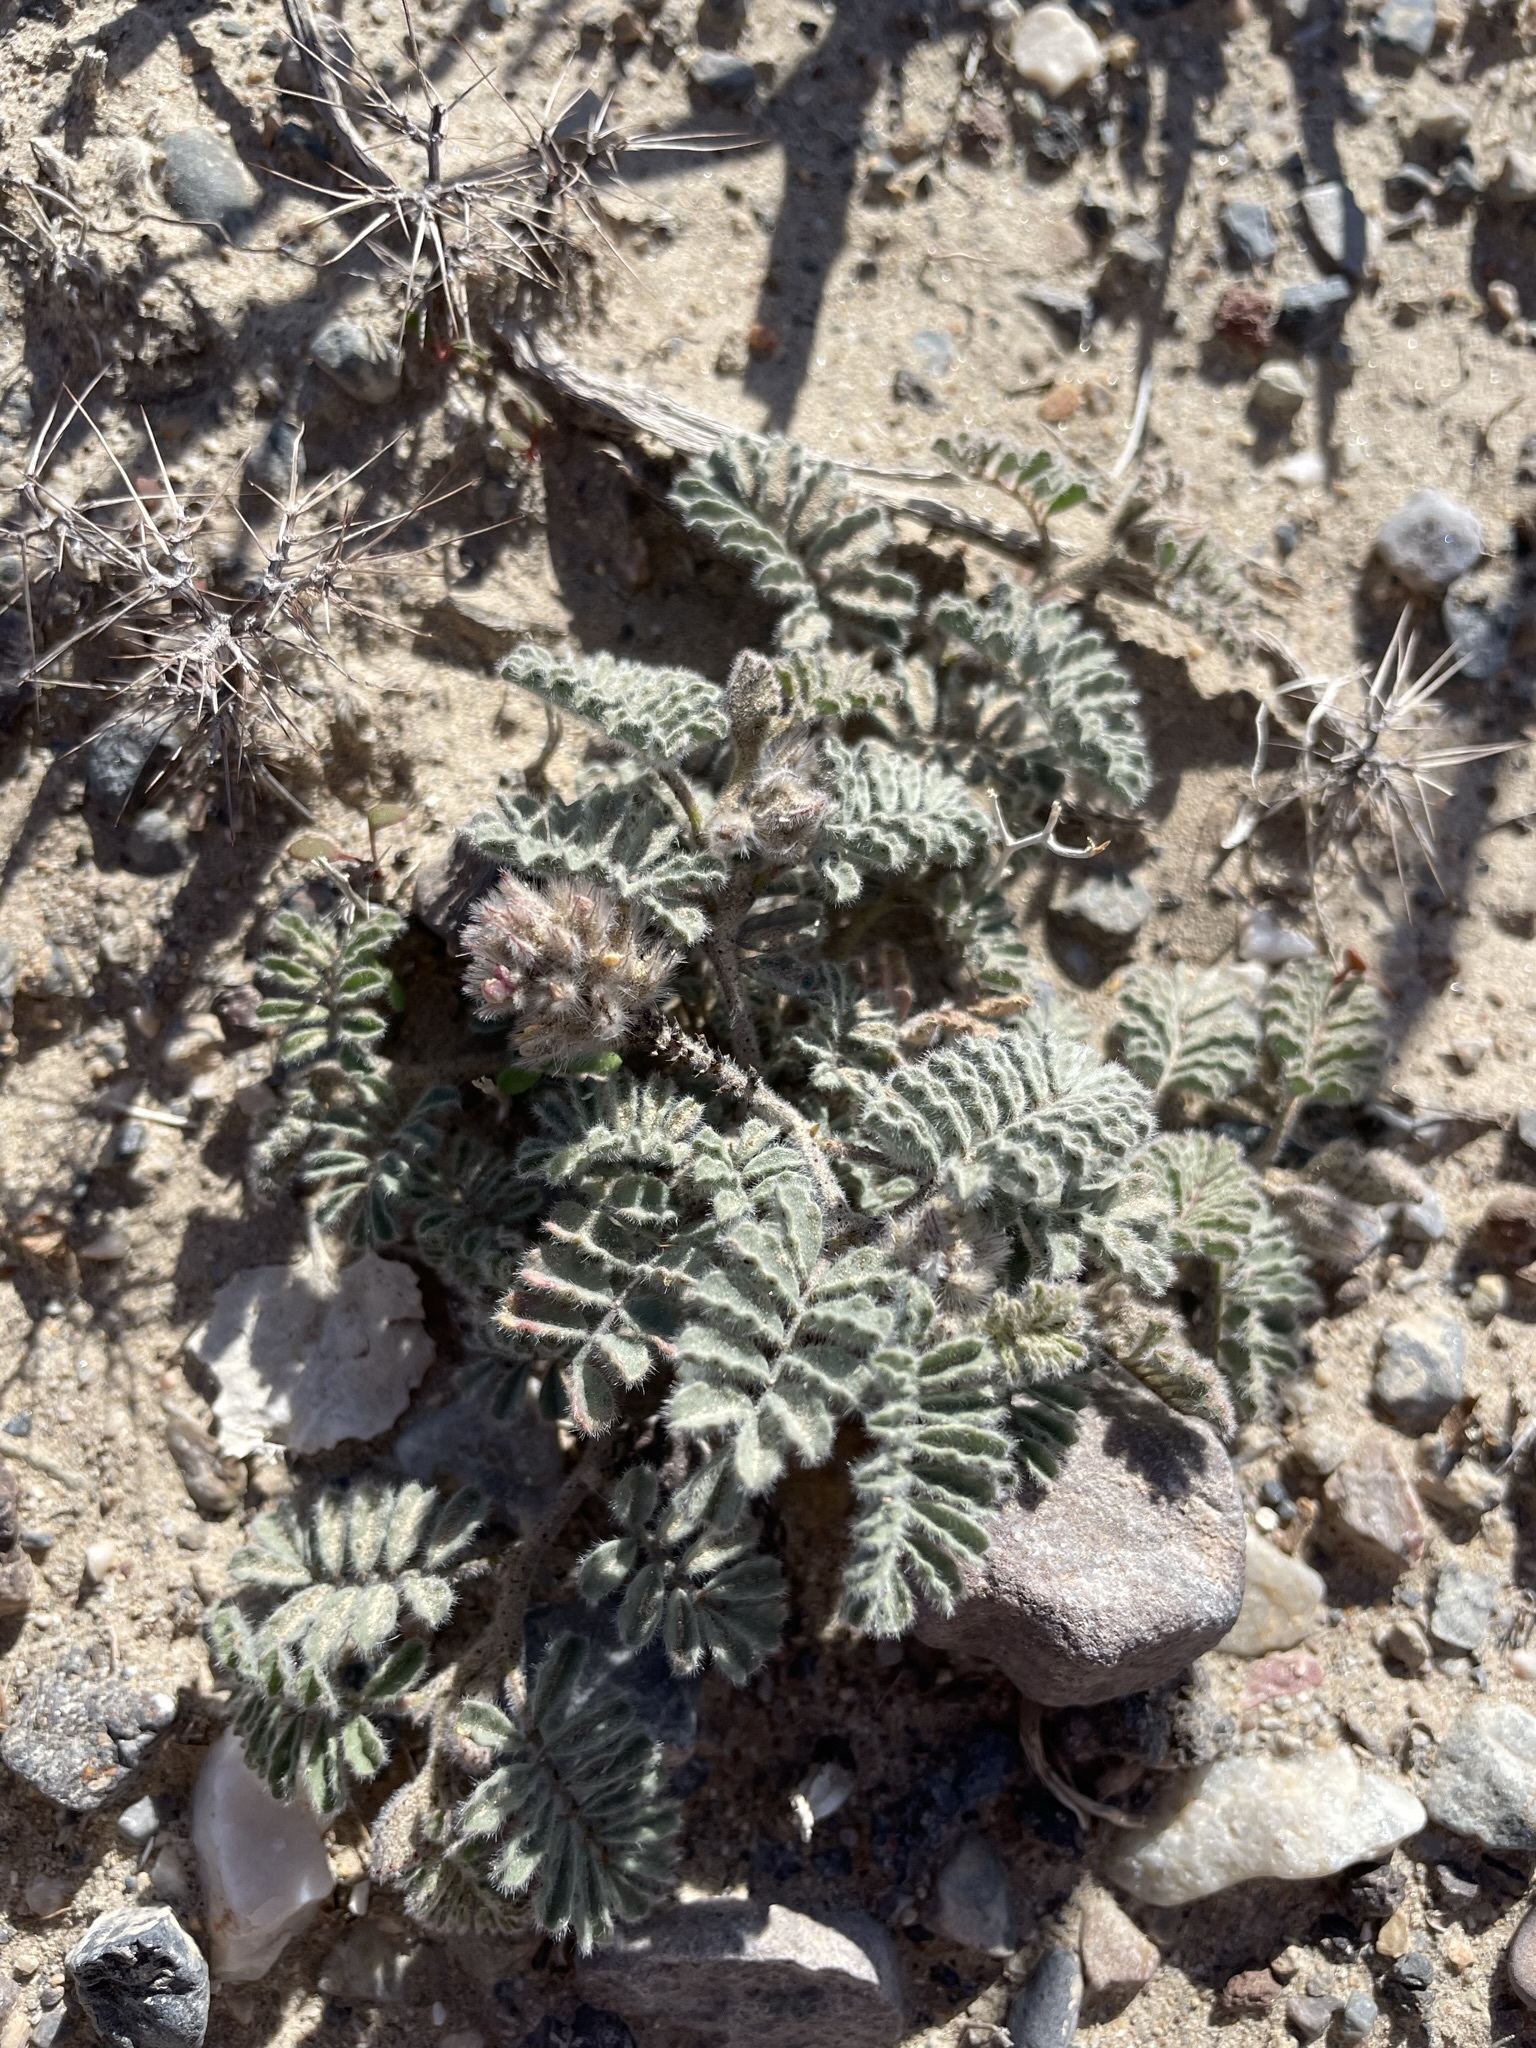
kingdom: Plantae
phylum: Tracheophyta
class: Magnoliopsida
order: Fabales
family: Fabaceae
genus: Dalea
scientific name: Dalea mollissima
